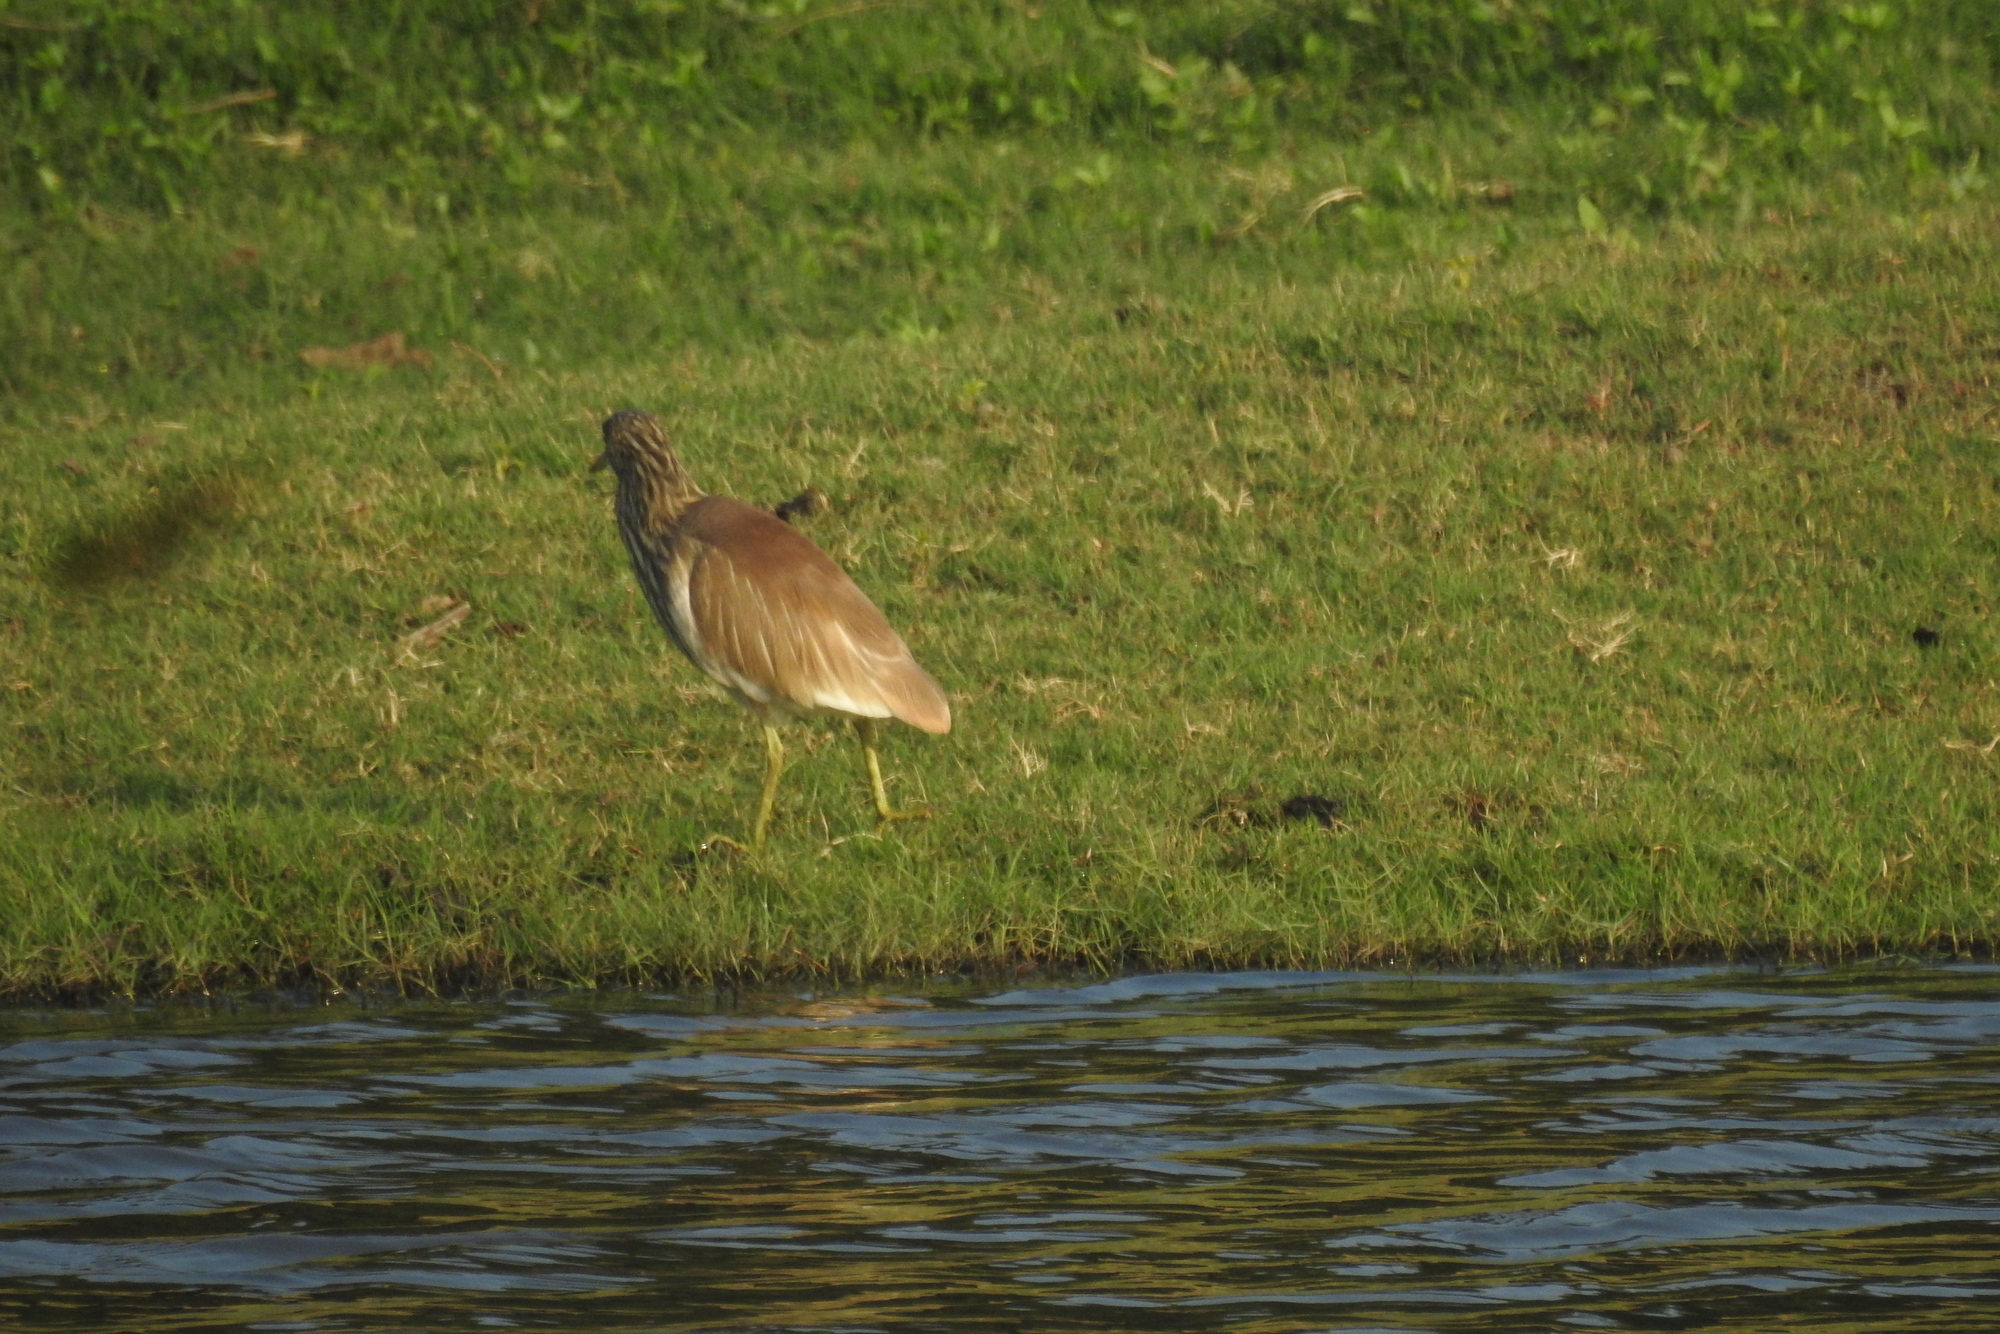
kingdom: Animalia
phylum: Chordata
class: Aves
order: Pelecaniformes
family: Ardeidae
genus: Ardeola
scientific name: Ardeola grayii
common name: Indian pond heron
